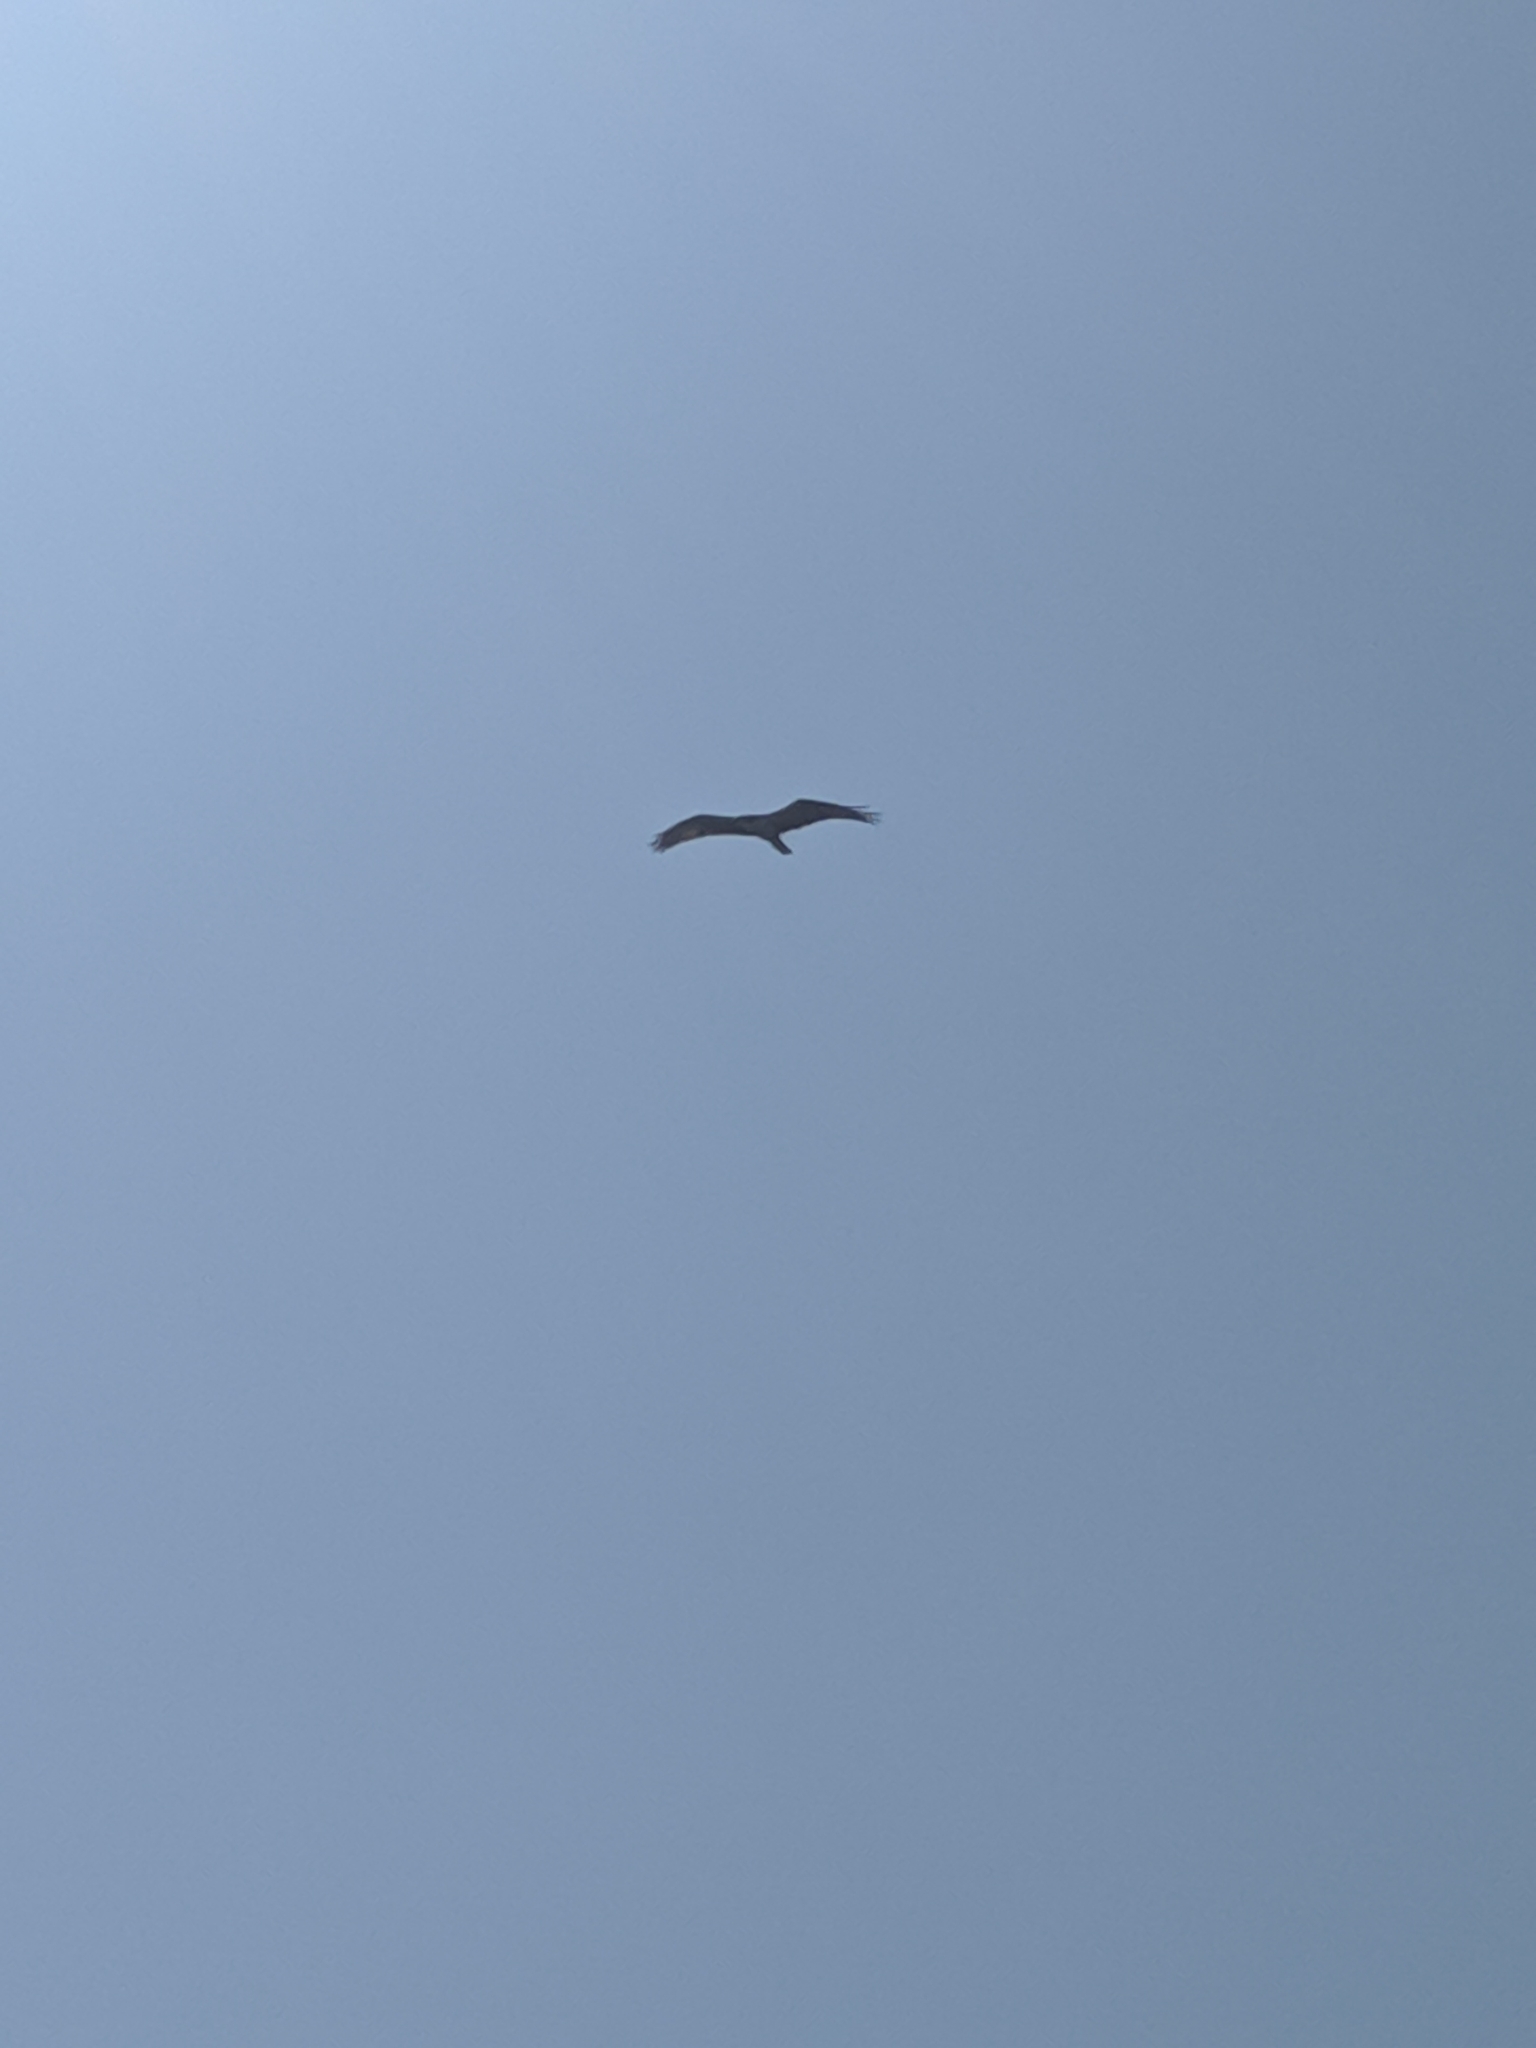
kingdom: Animalia
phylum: Chordata
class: Aves
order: Accipitriformes
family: Pandionidae
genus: Pandion
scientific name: Pandion haliaetus
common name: Osprey
